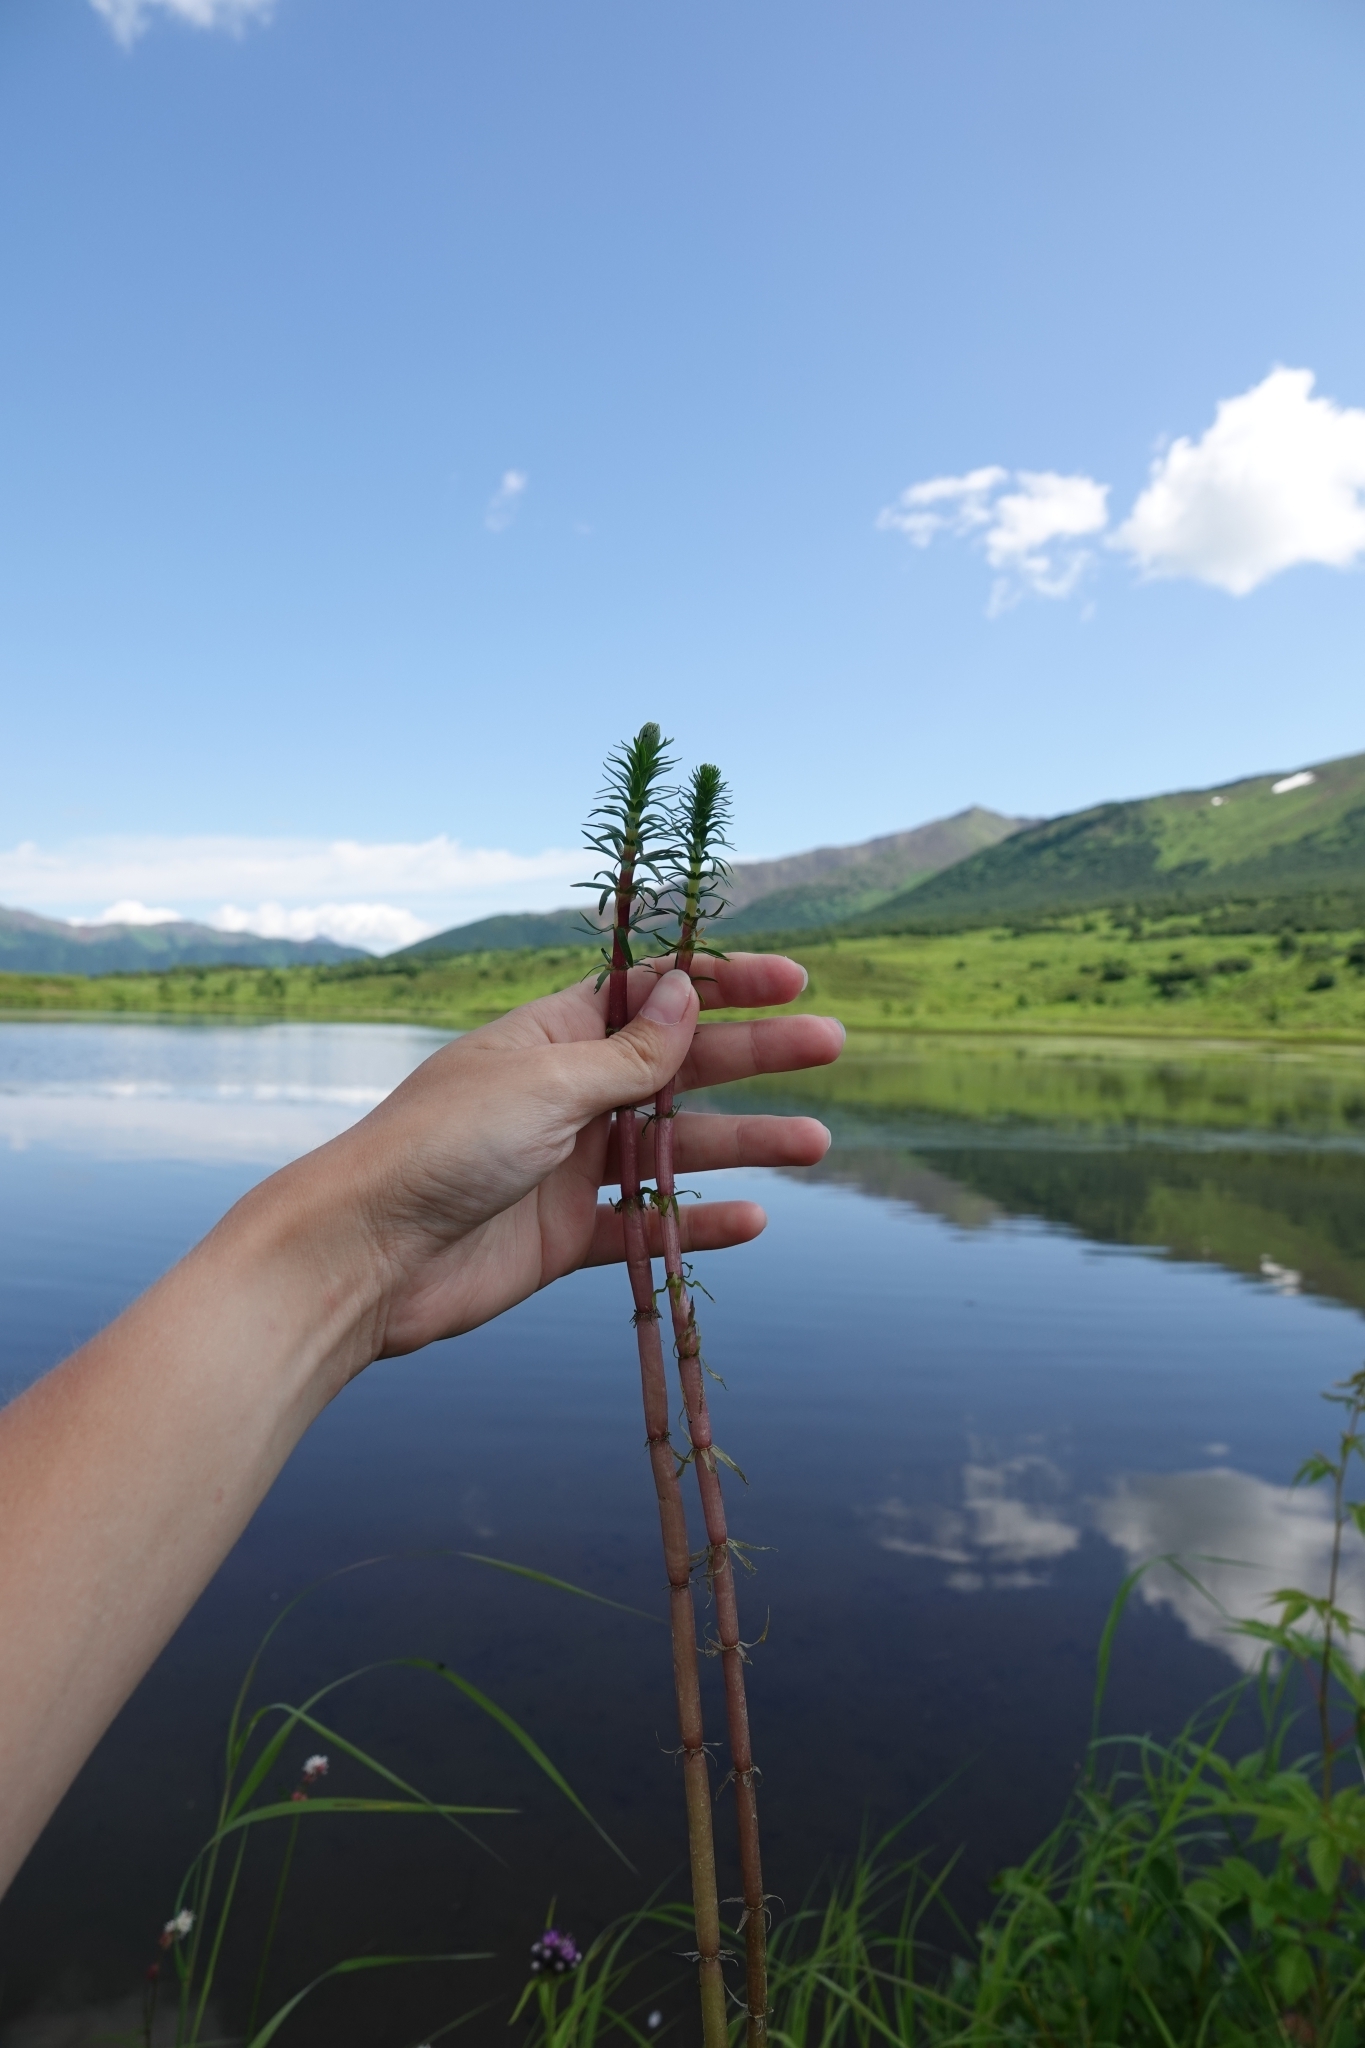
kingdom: Plantae
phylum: Tracheophyta
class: Magnoliopsida
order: Lamiales
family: Plantaginaceae
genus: Hippuris
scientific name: Hippuris vulgaris
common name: Mare's-tail
